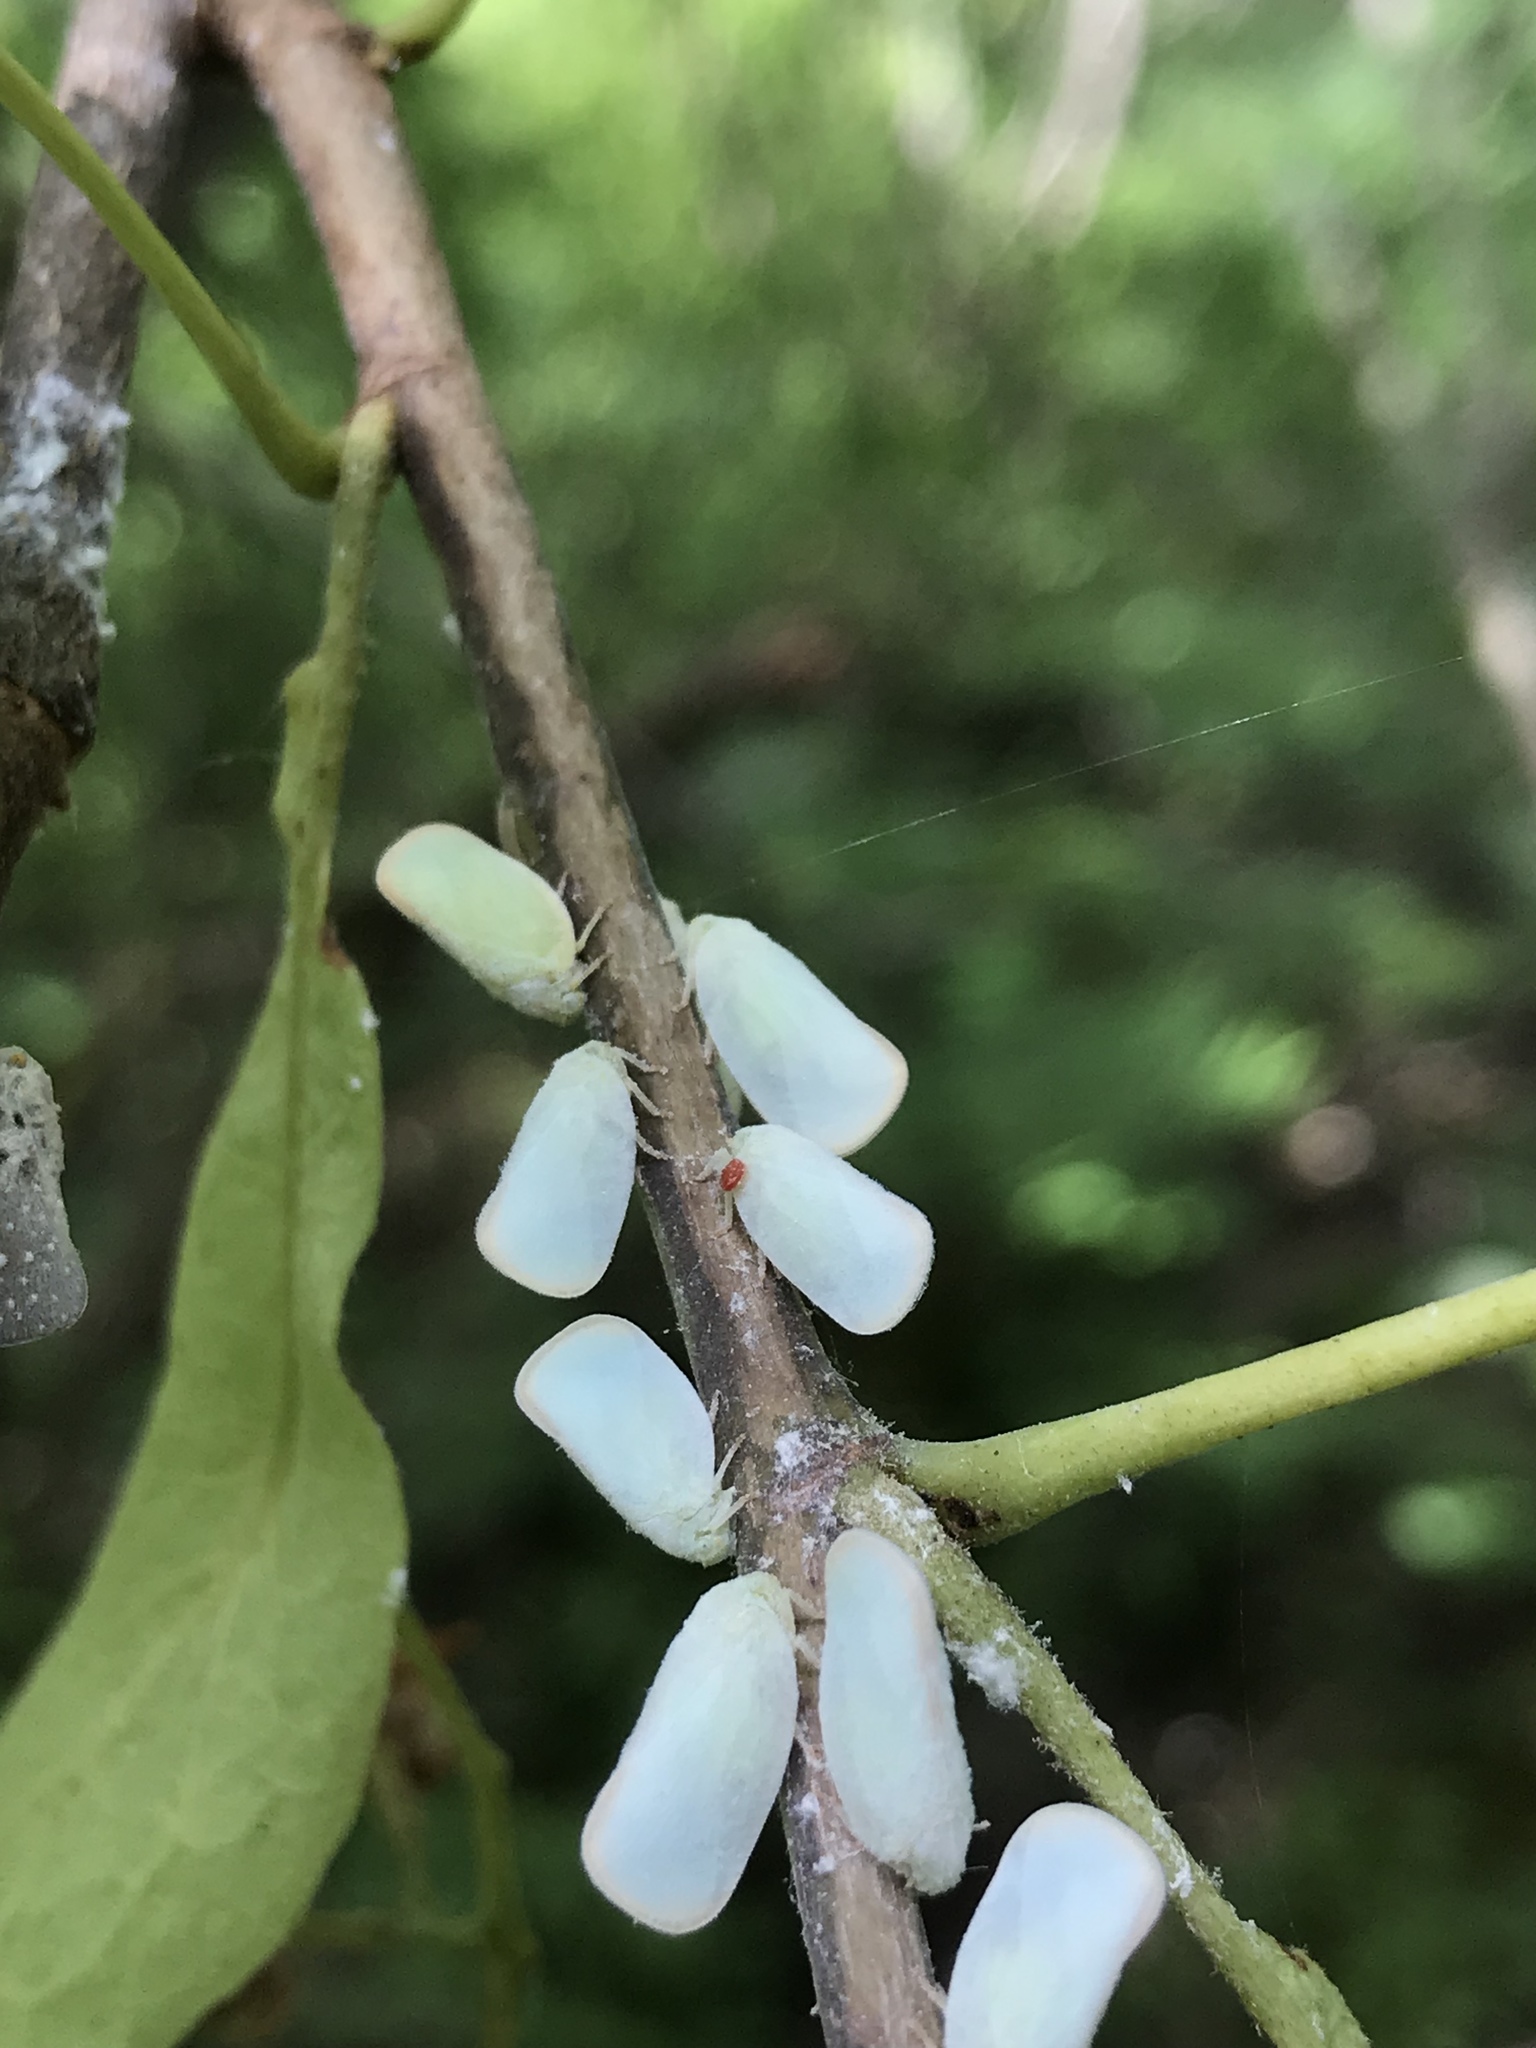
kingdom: Animalia
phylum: Arthropoda
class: Insecta
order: Hemiptera
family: Flatidae
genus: Ormenoides
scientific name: Ormenoides venusta
